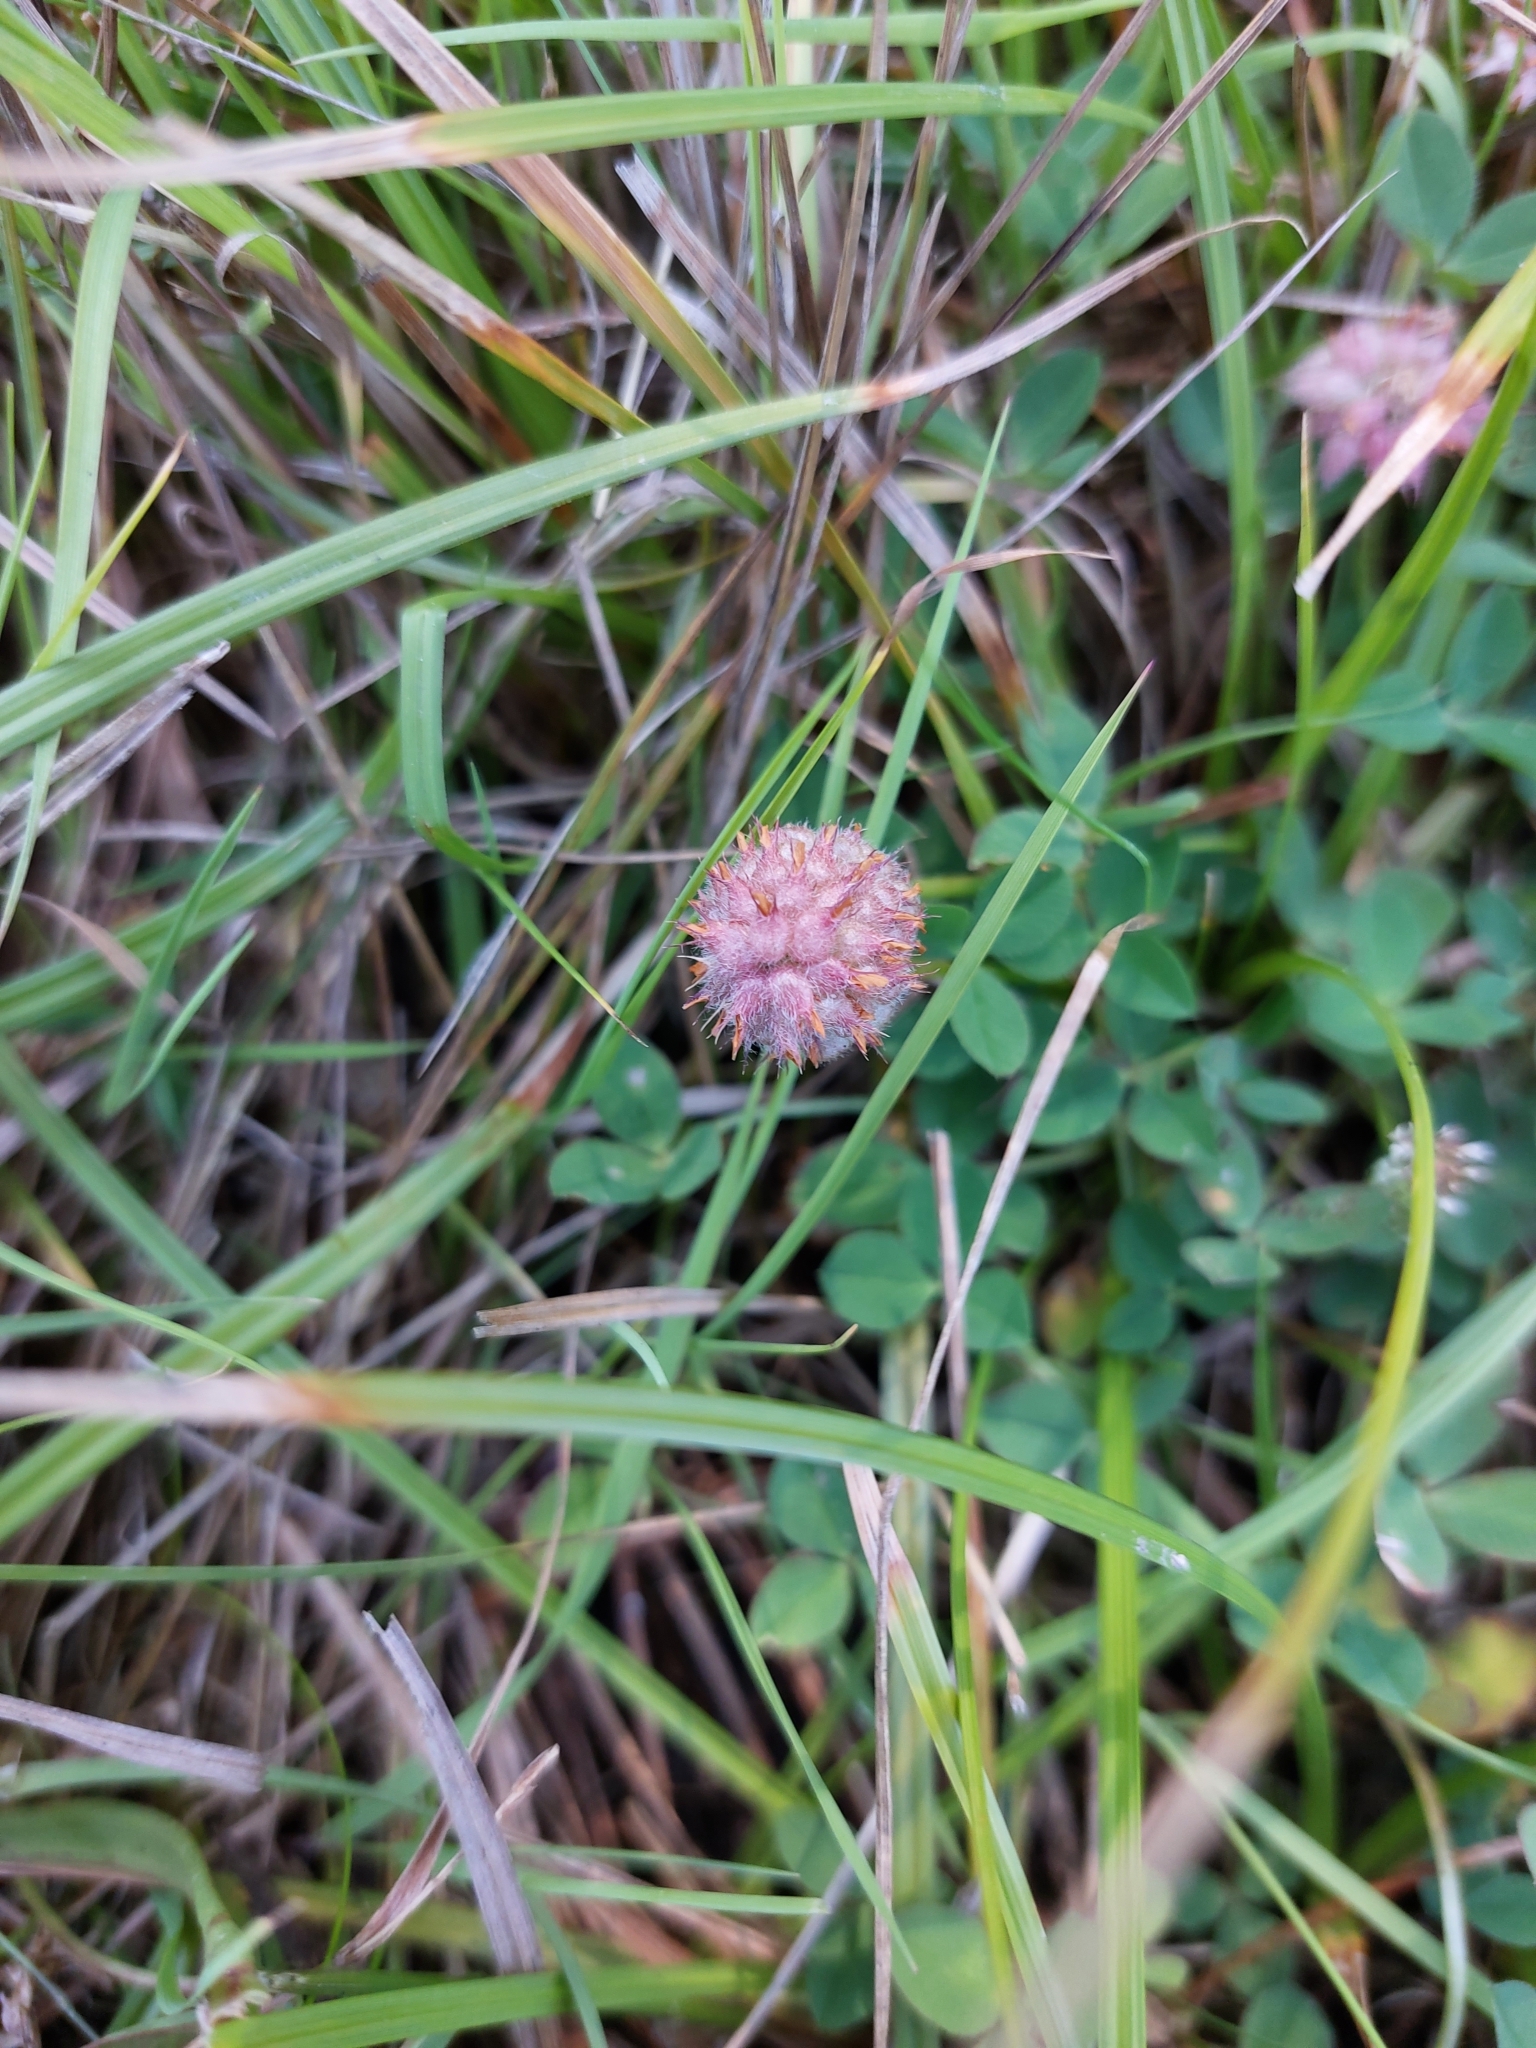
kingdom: Plantae
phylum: Tracheophyta
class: Magnoliopsida
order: Fabales
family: Fabaceae
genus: Trifolium
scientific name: Trifolium fragiferum
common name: Strawberry clover
